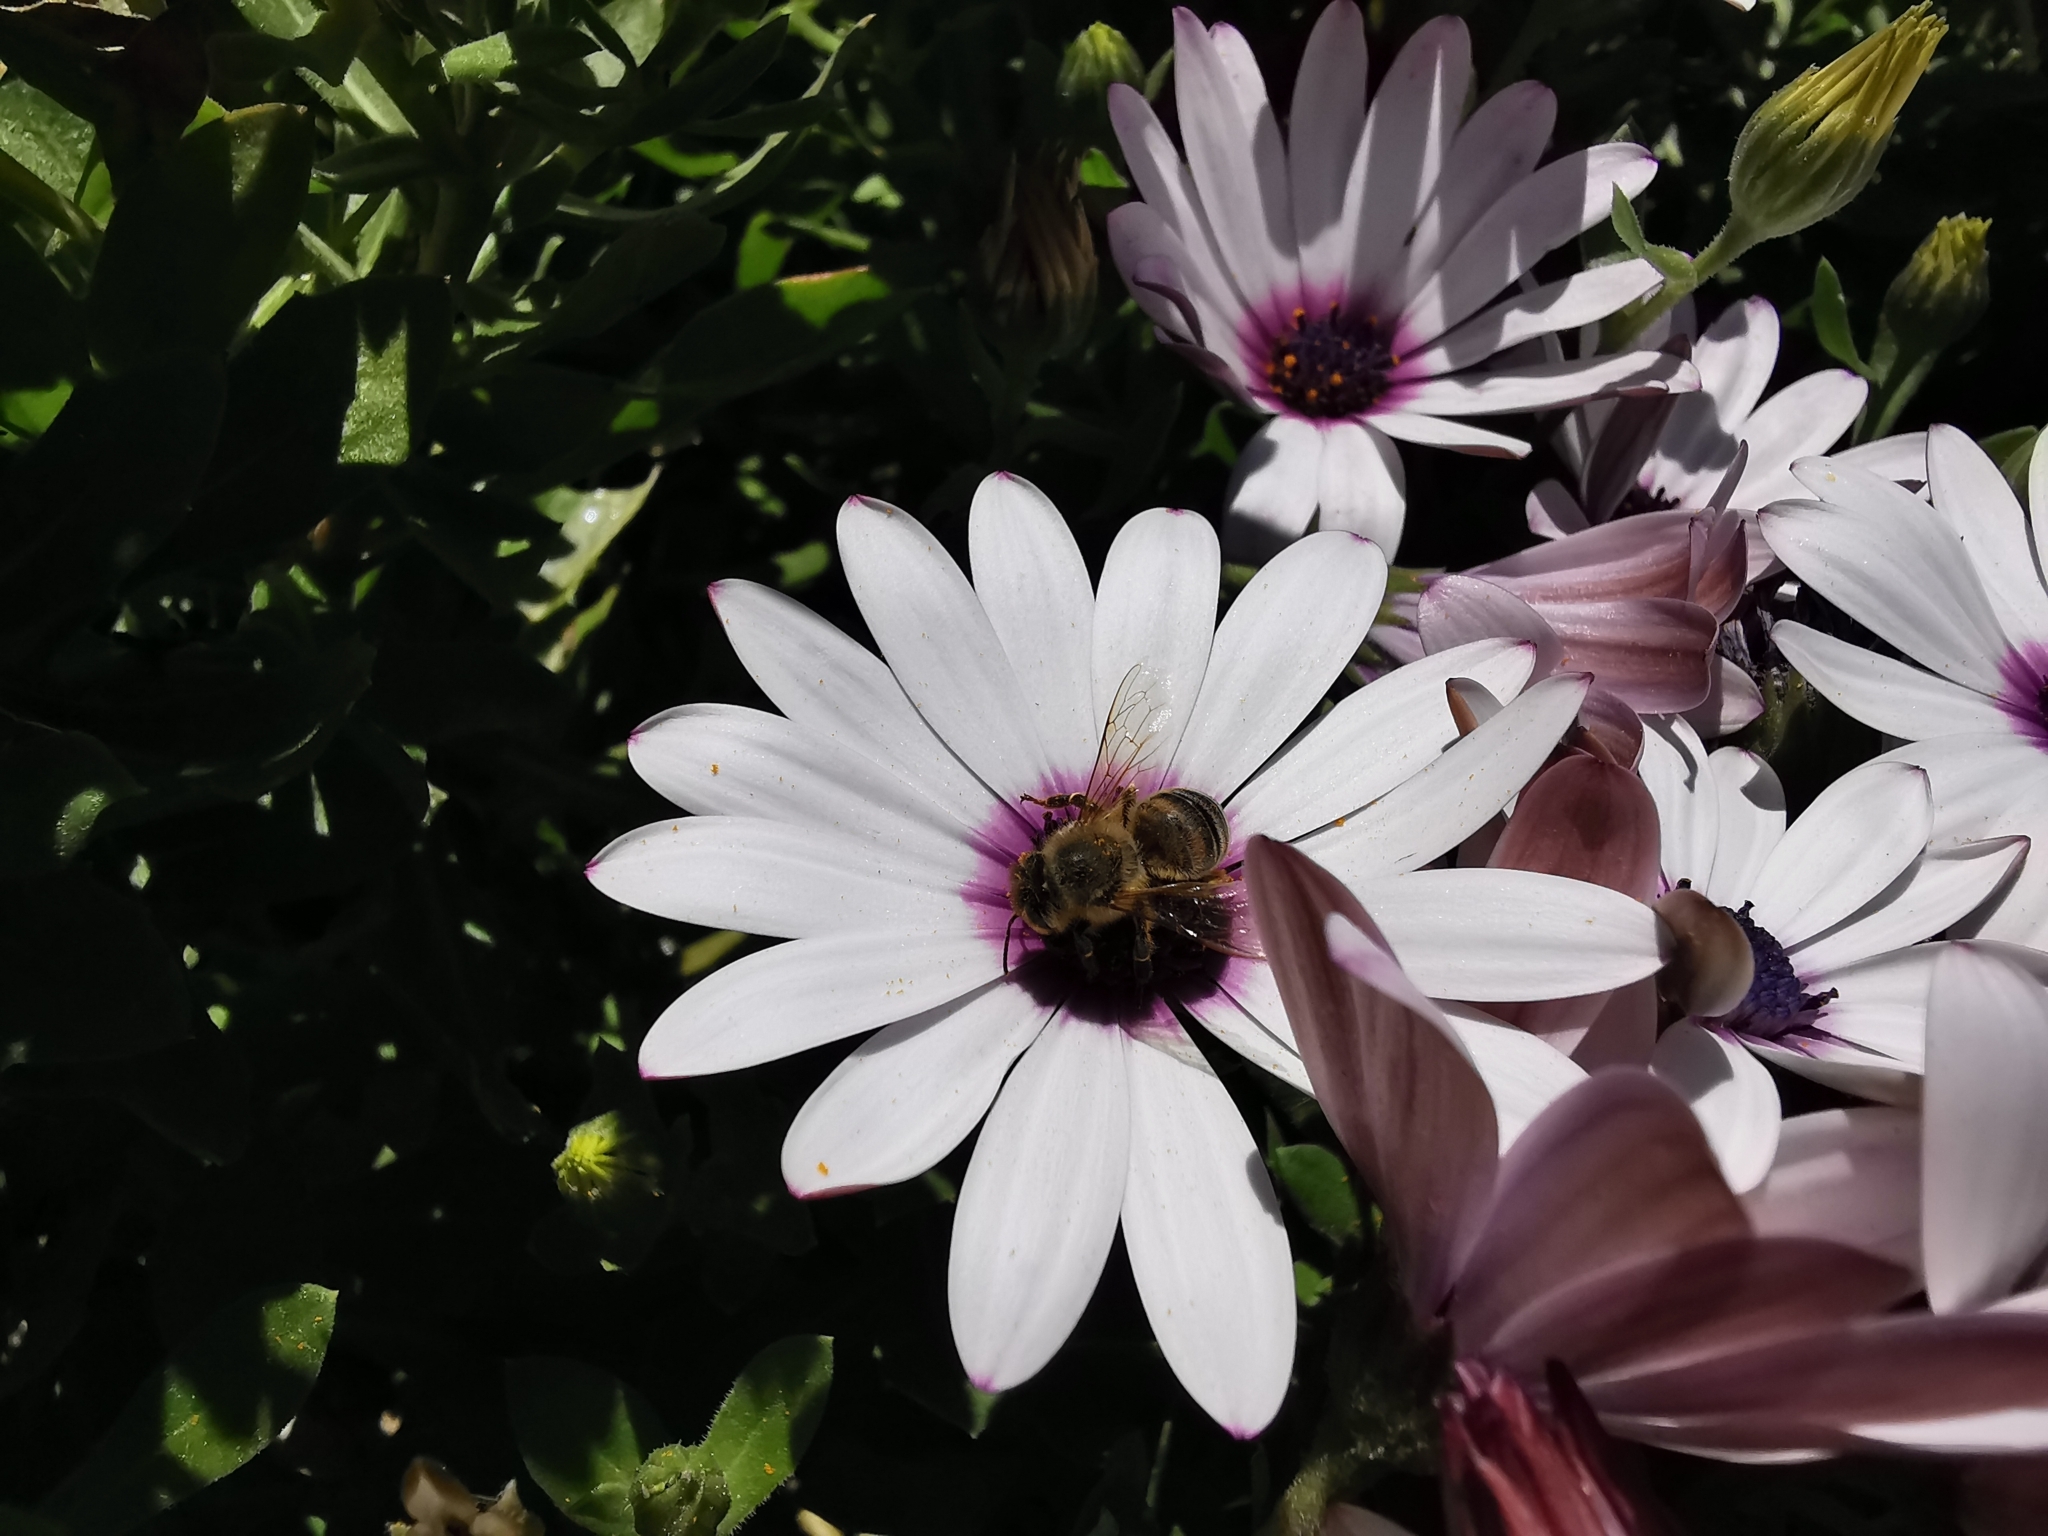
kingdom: Animalia
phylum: Arthropoda
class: Insecta
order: Hymenoptera
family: Apidae
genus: Apis
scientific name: Apis mellifera
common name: Honey bee
